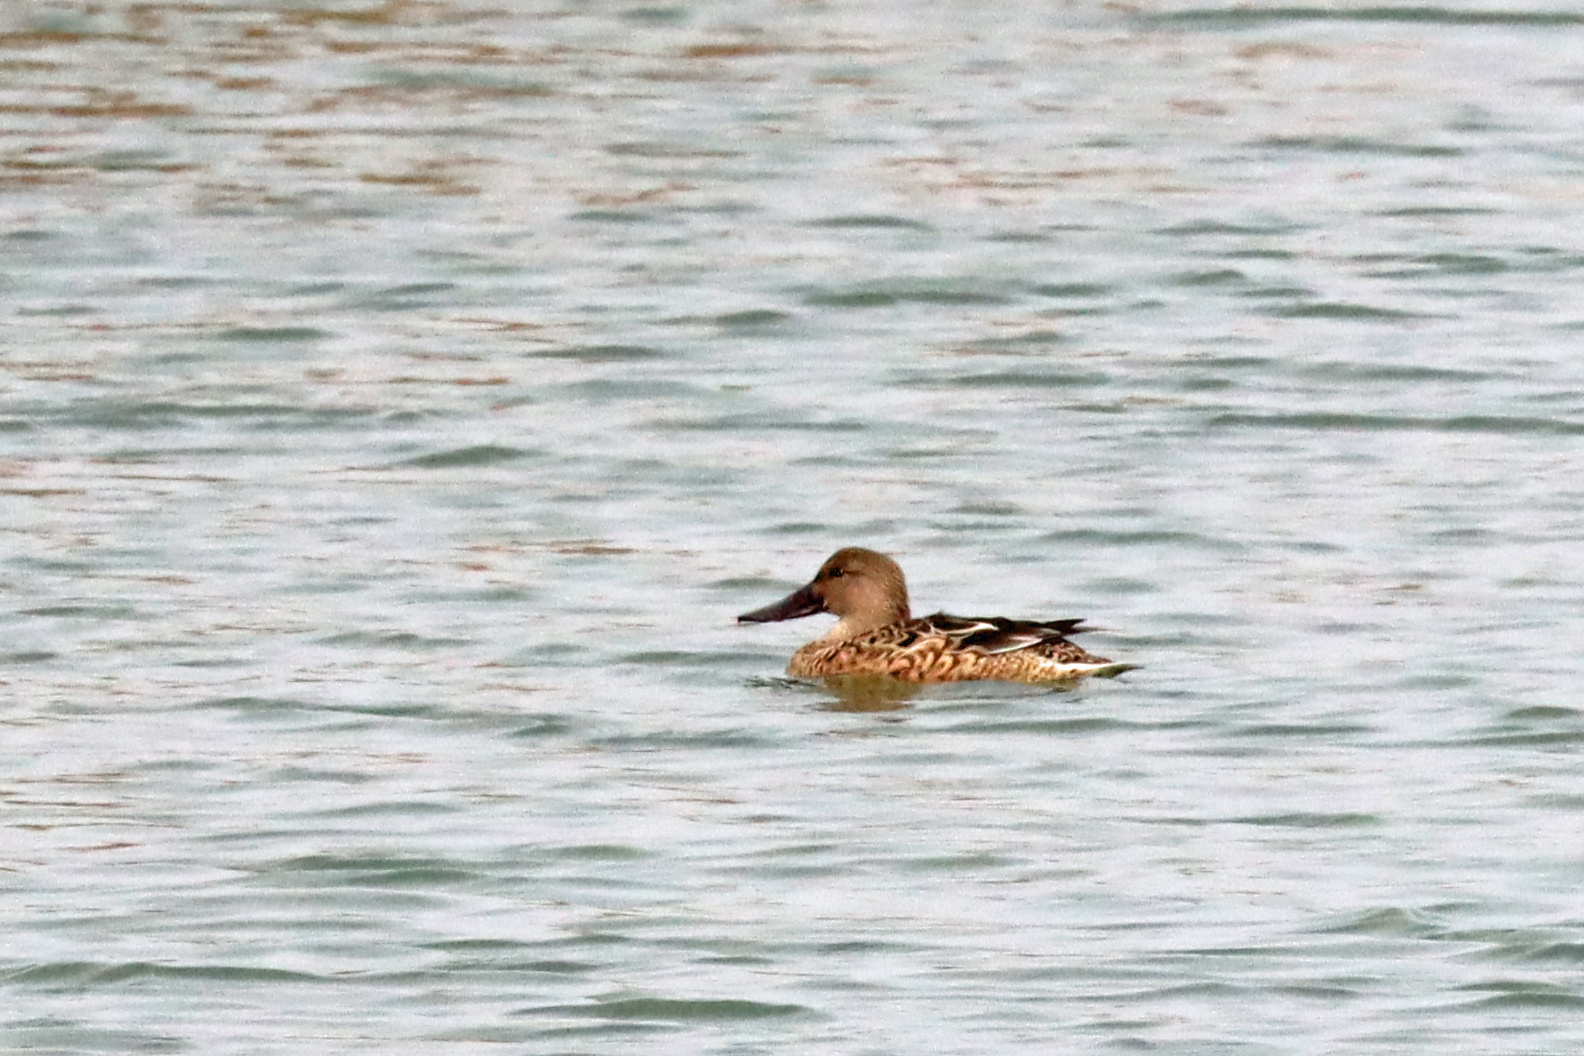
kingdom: Animalia
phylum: Chordata
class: Aves
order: Anseriformes
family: Anatidae
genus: Spatula
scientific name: Spatula clypeata
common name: Northern shoveler
